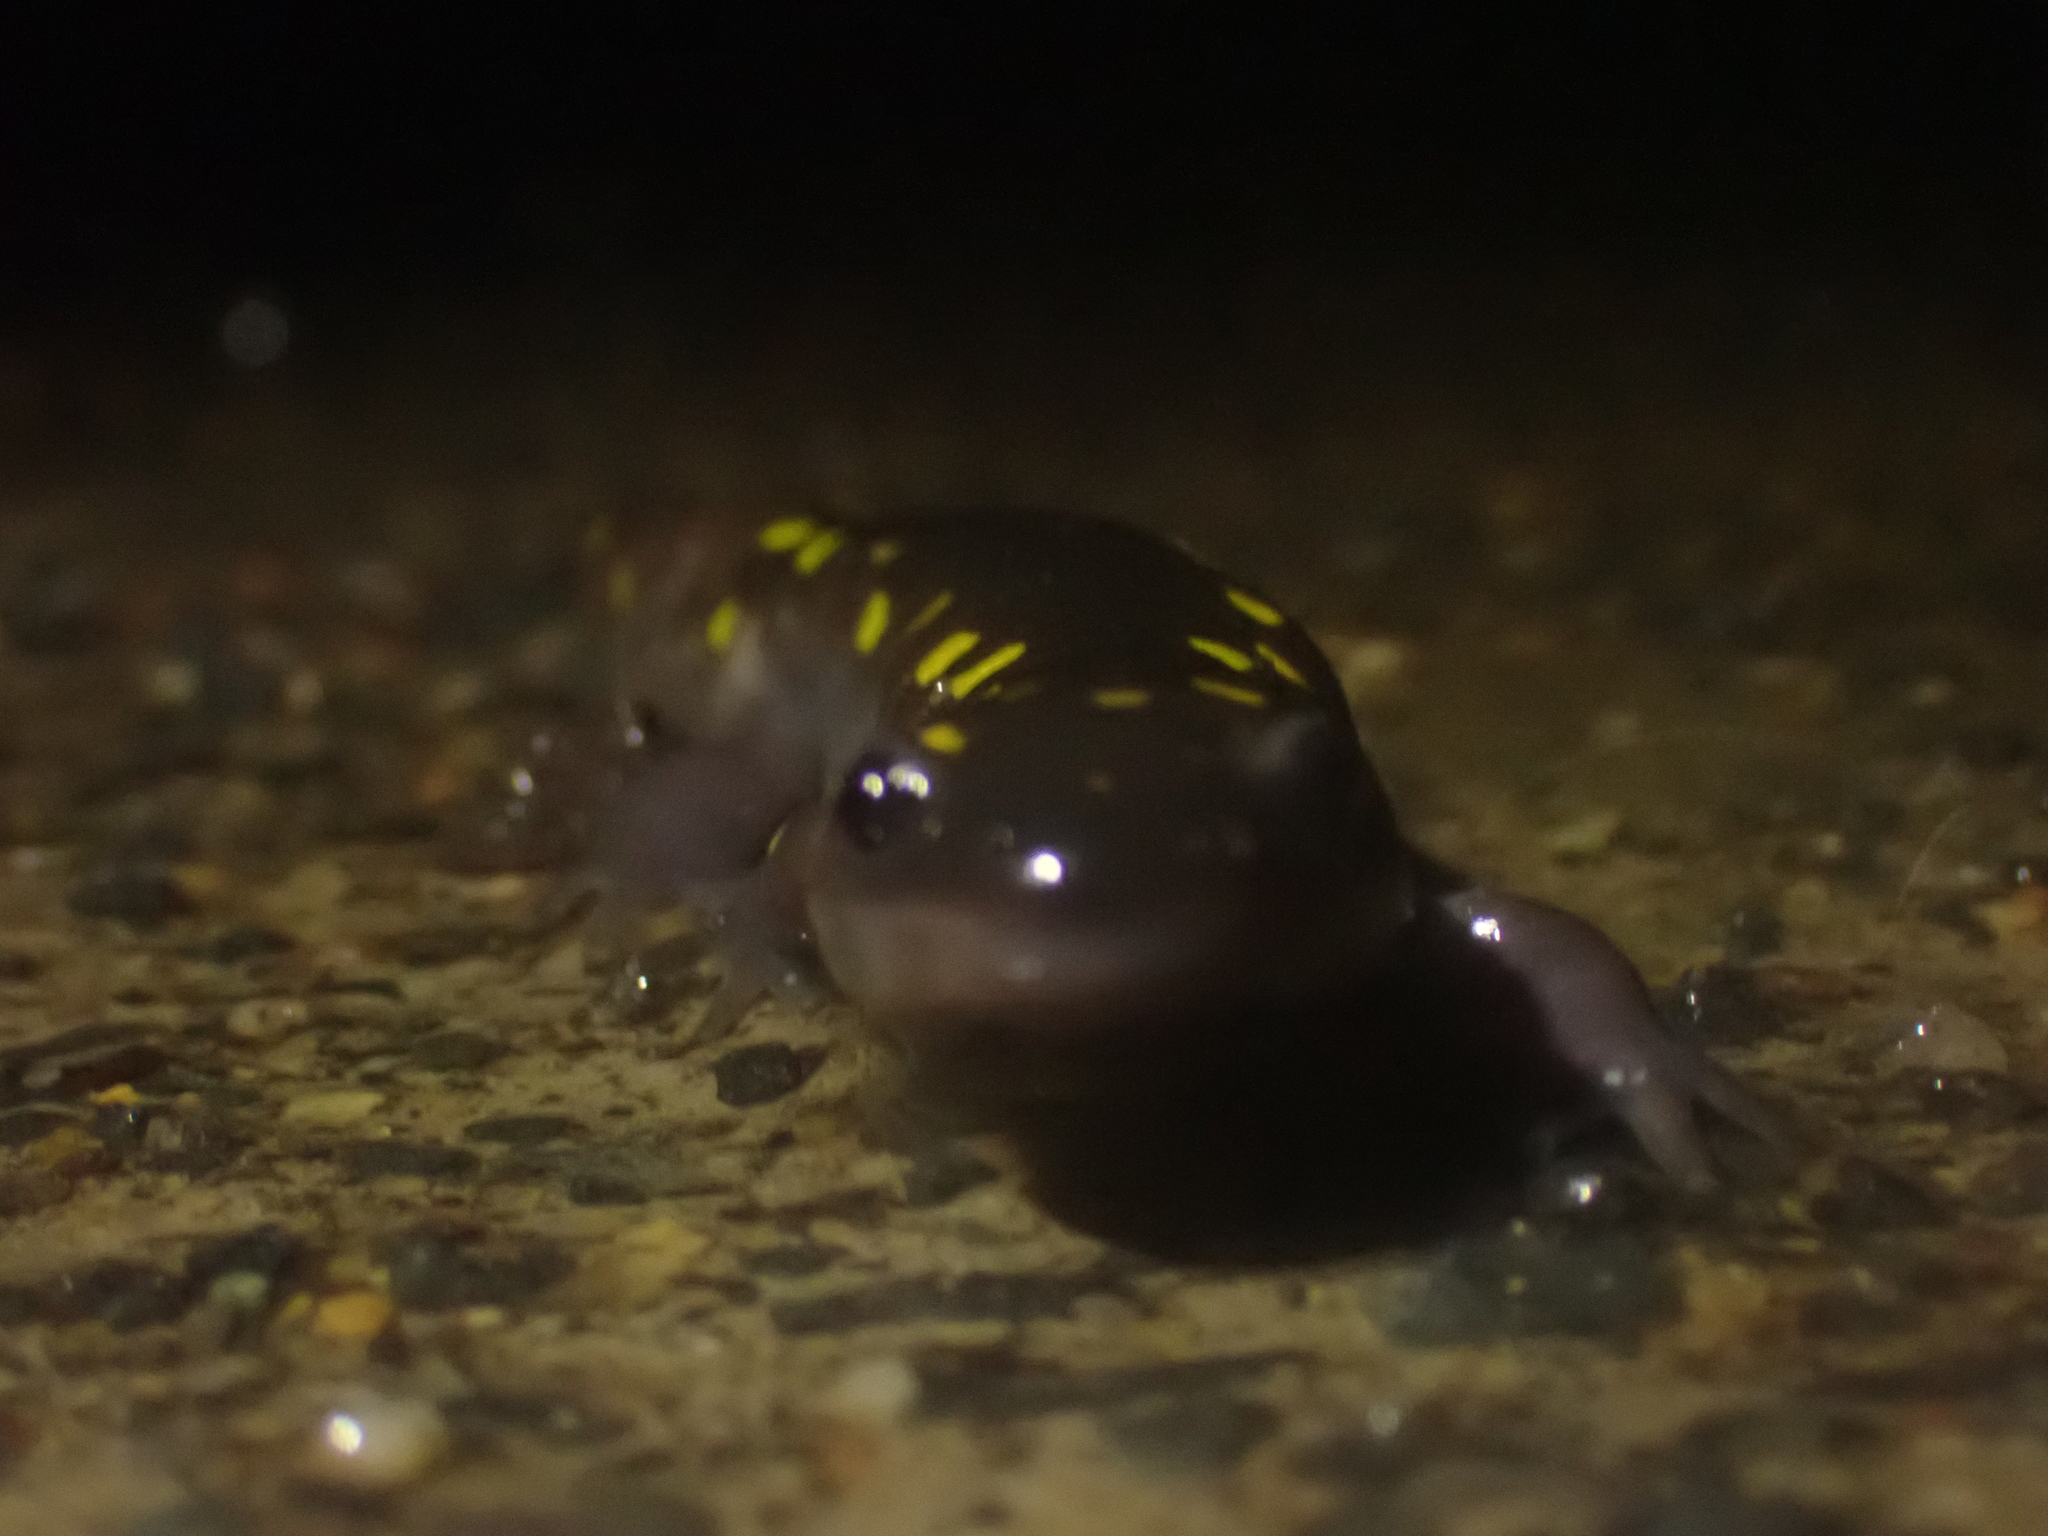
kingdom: Animalia
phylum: Chordata
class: Amphibia
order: Caudata
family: Ambystomatidae
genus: Ambystoma
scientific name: Ambystoma maculatum
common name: Spotted salamander
